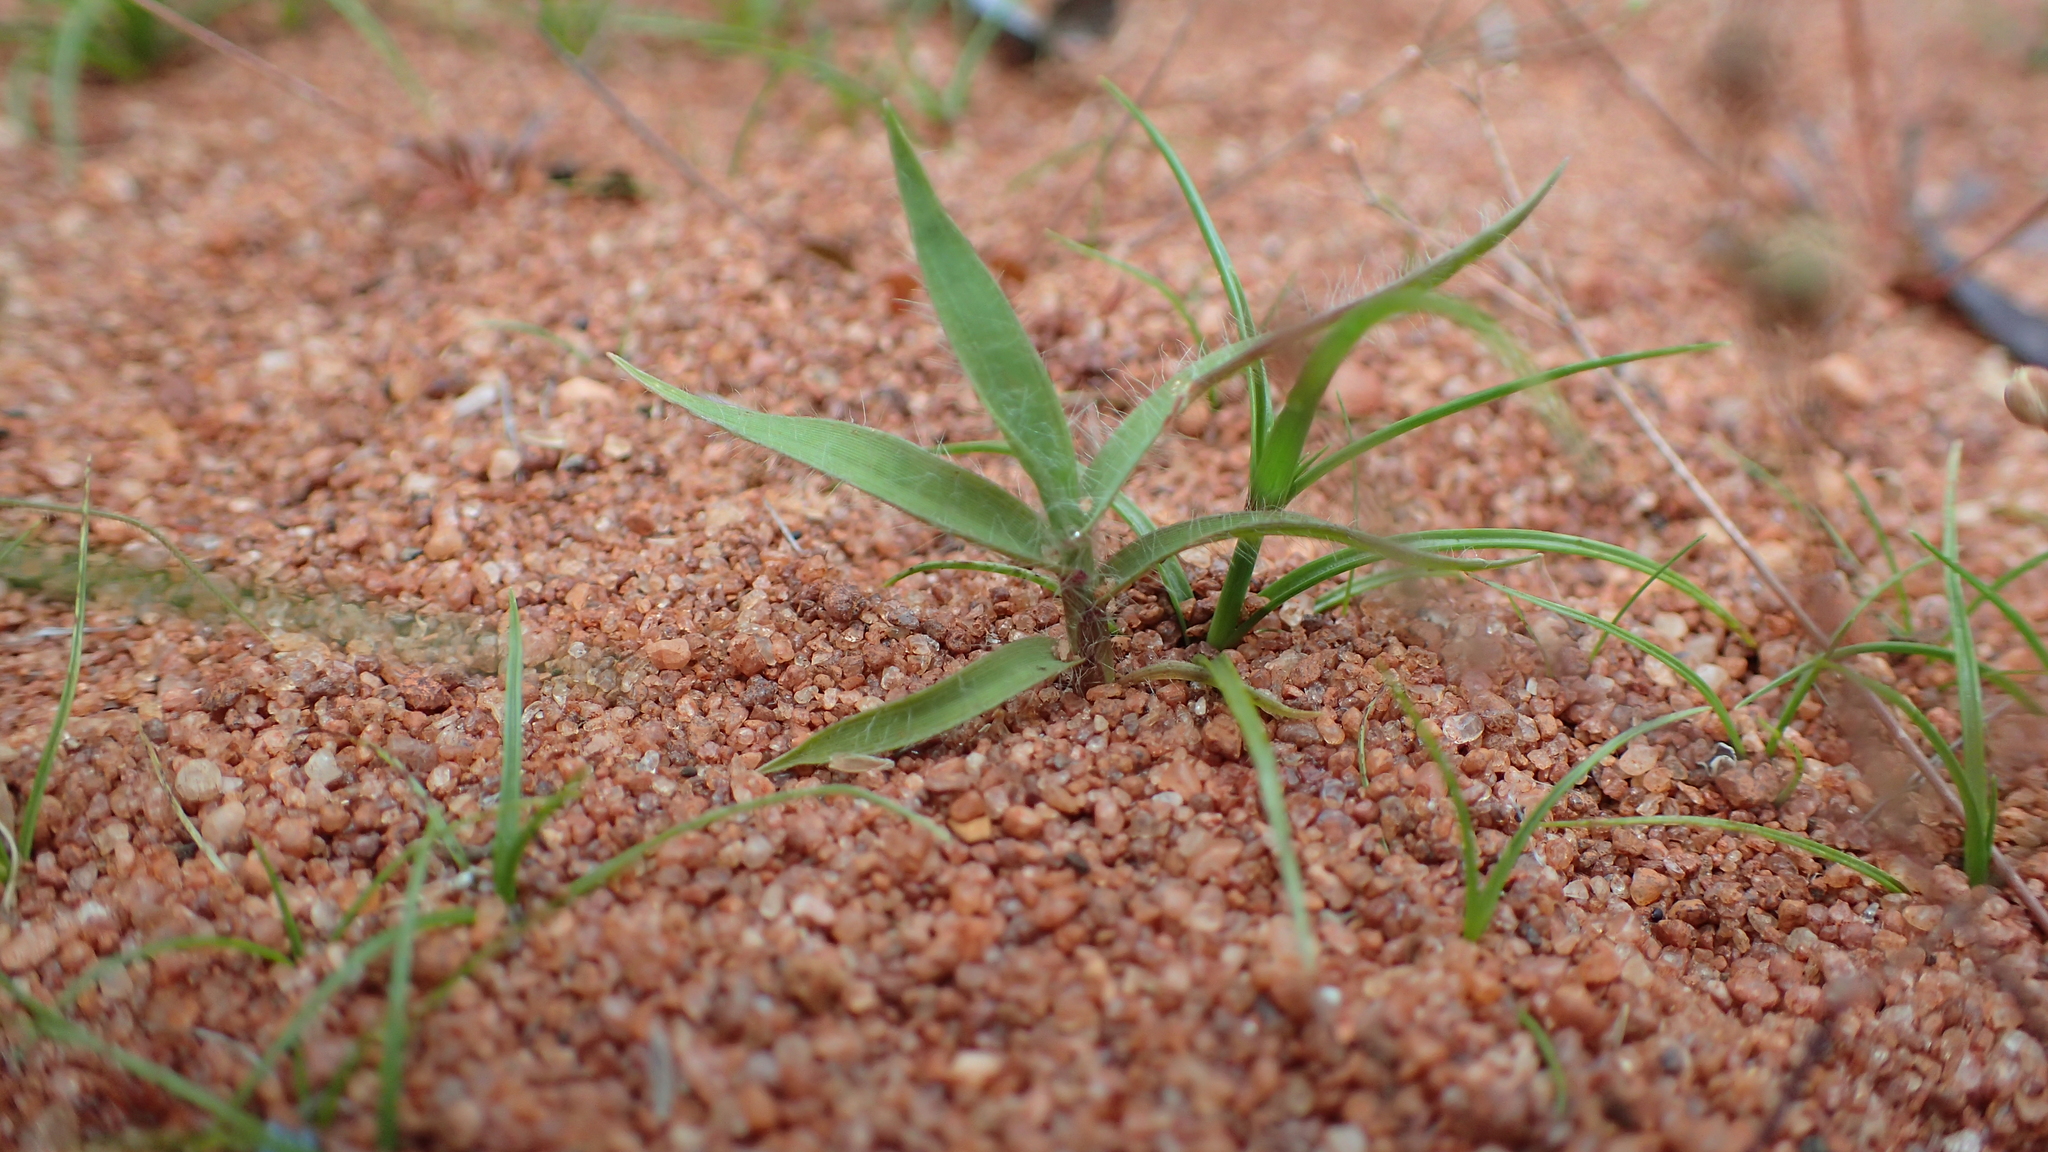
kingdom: Plantae
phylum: Tracheophyta
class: Liliopsida
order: Poales
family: Poaceae
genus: Eragrostis
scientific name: Eragrostis boinensis
